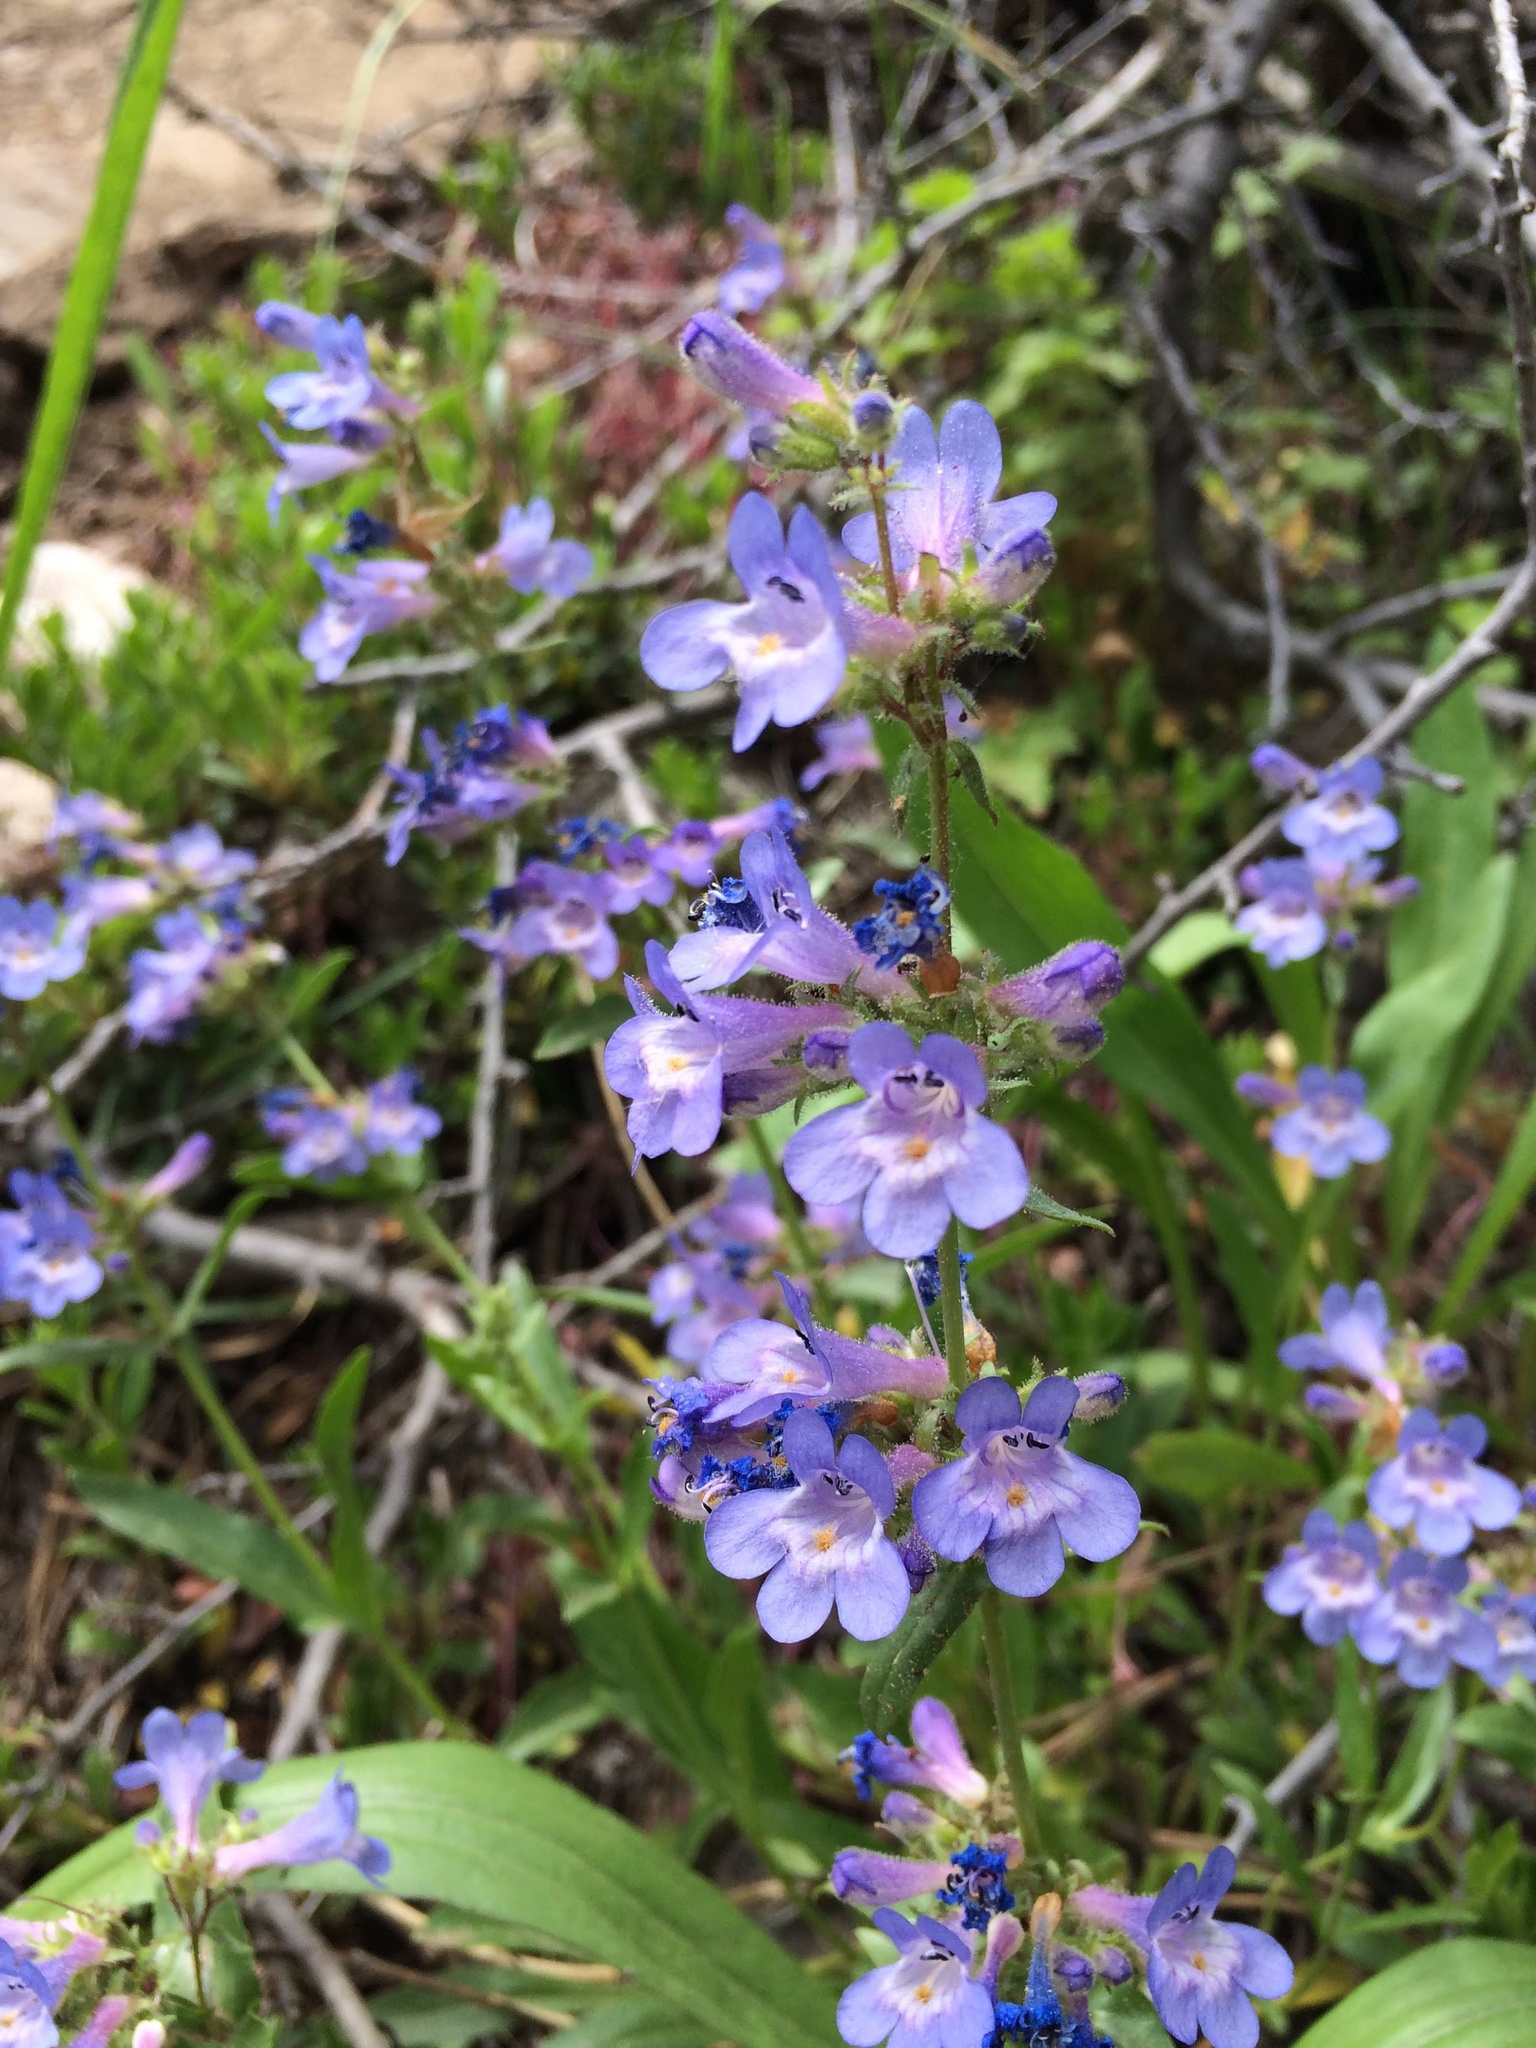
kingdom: Plantae
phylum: Tracheophyta
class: Magnoliopsida
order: Lamiales
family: Plantaginaceae
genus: Penstemon
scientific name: Penstemon virens
